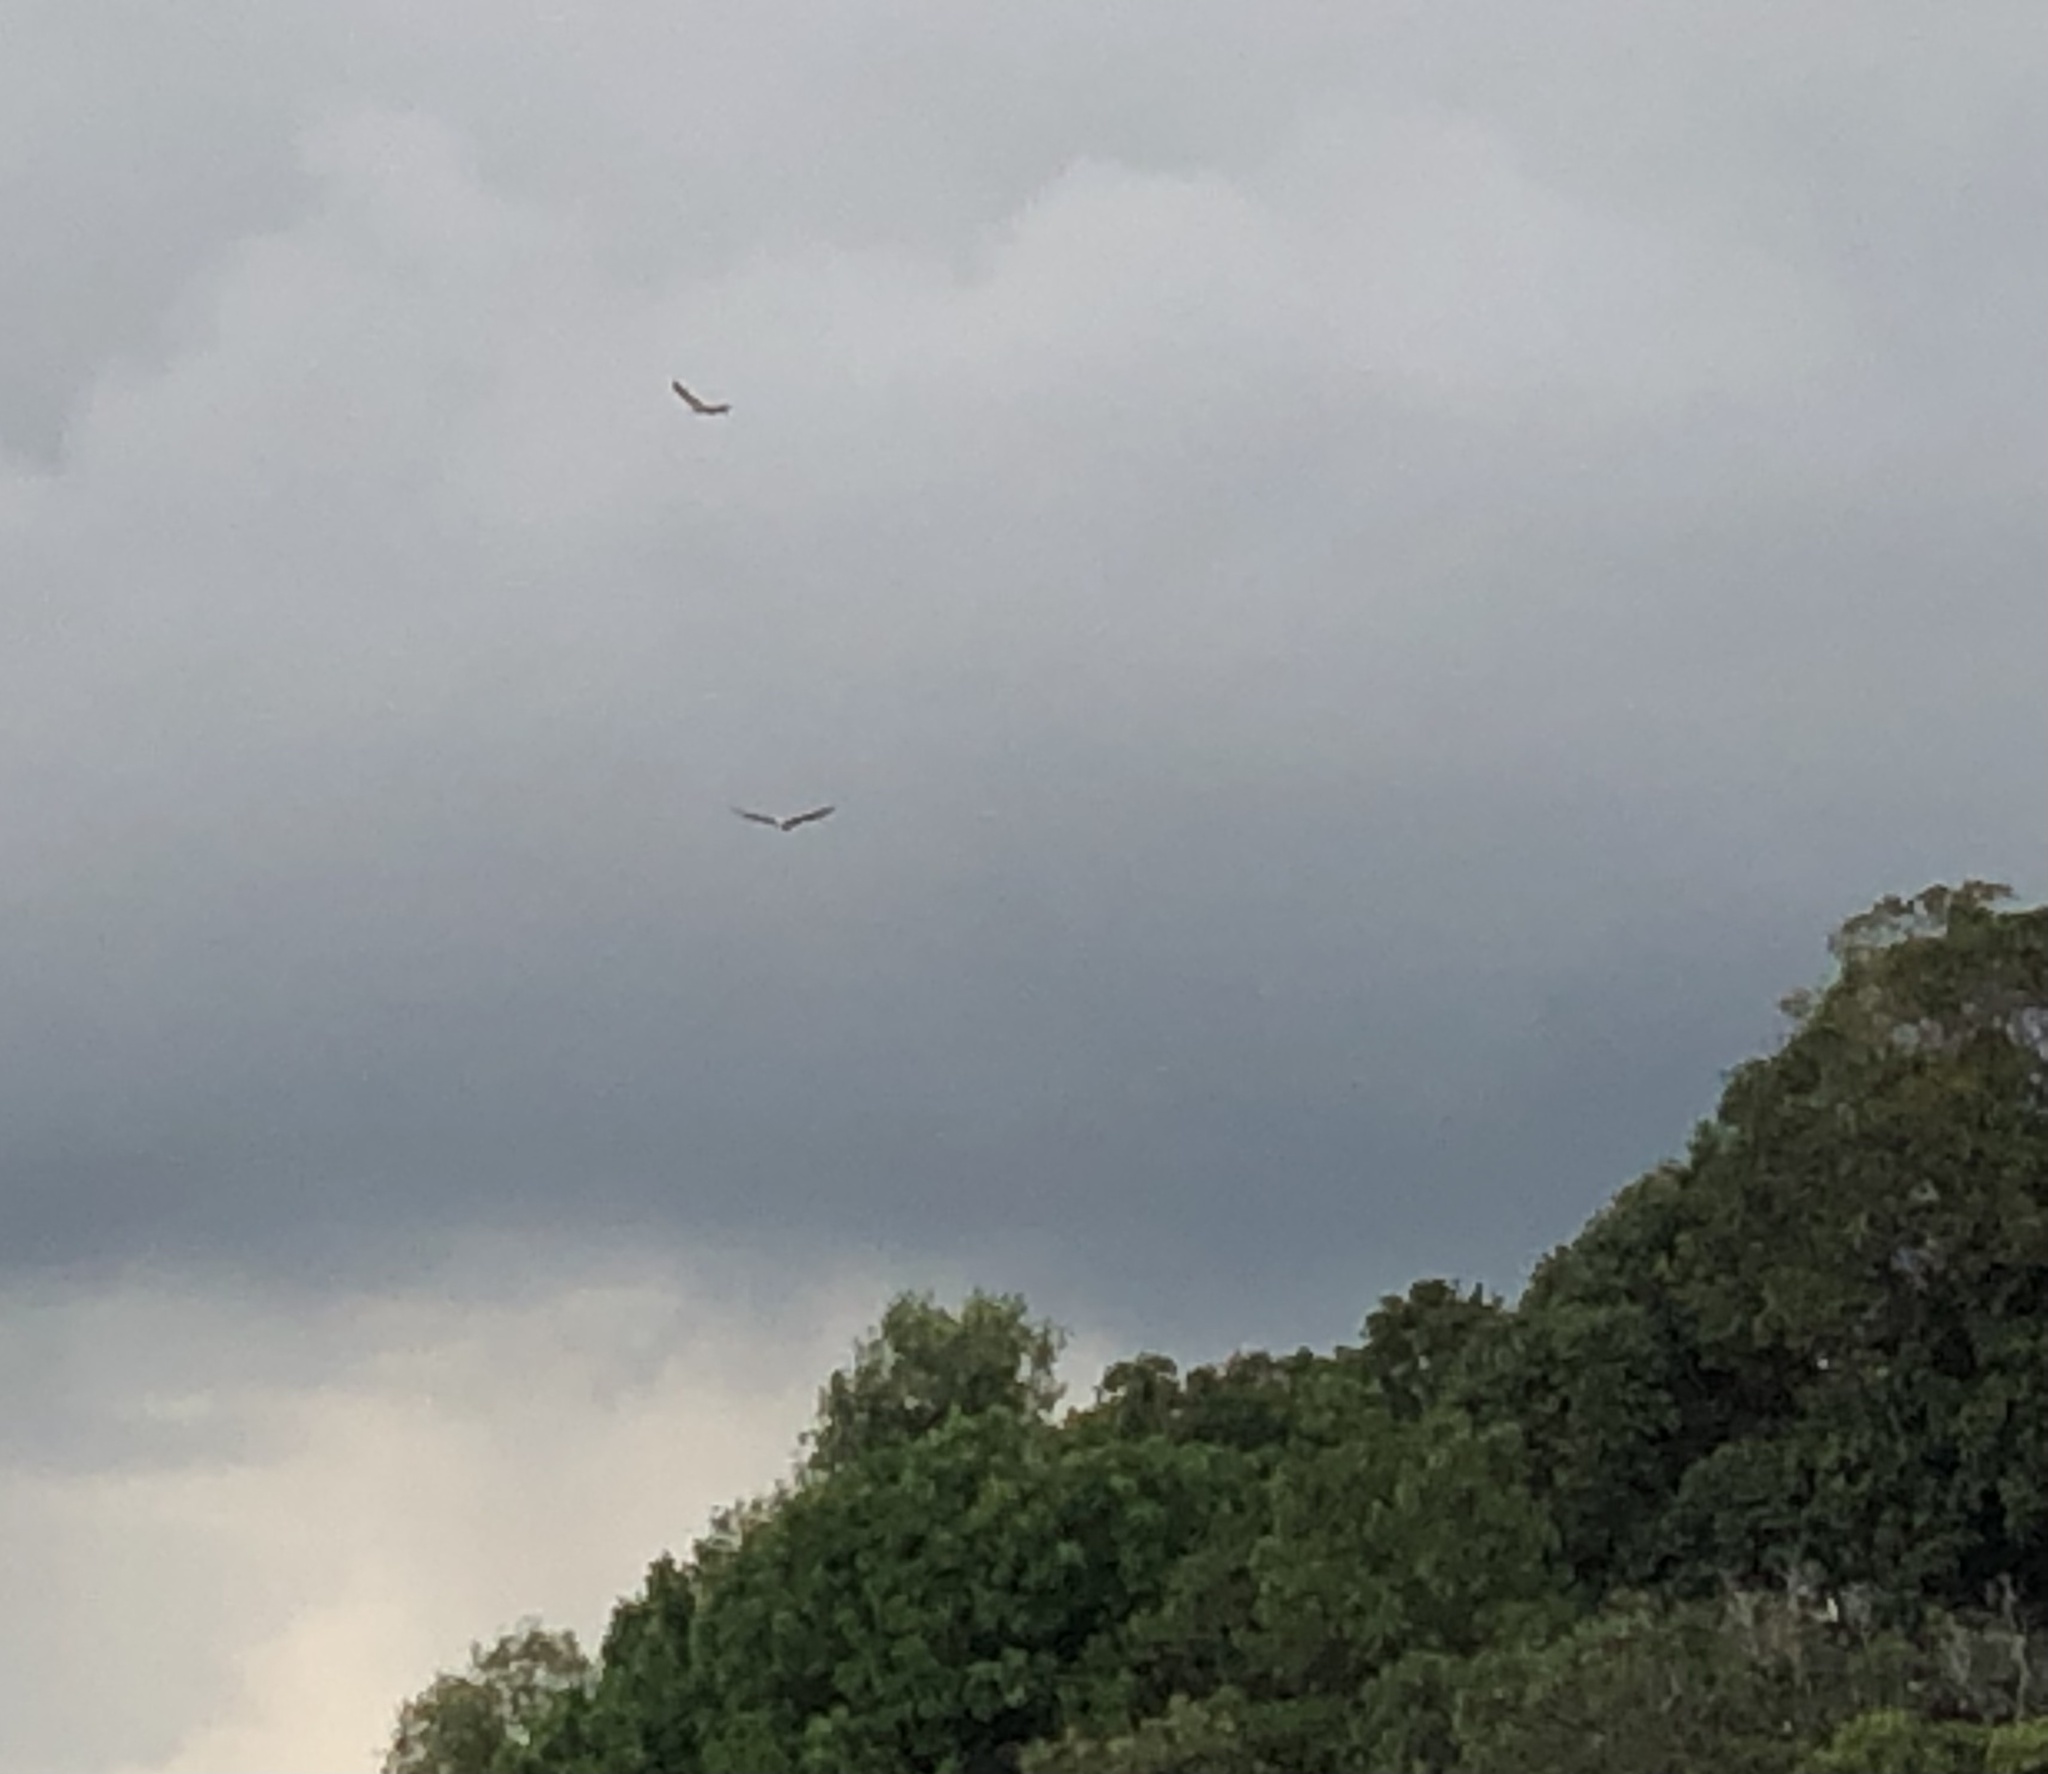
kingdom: Animalia
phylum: Chordata
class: Aves
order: Accipitriformes
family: Accipitridae
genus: Haliaeetus
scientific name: Haliaeetus leucogaster
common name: White-bellied sea eagle
